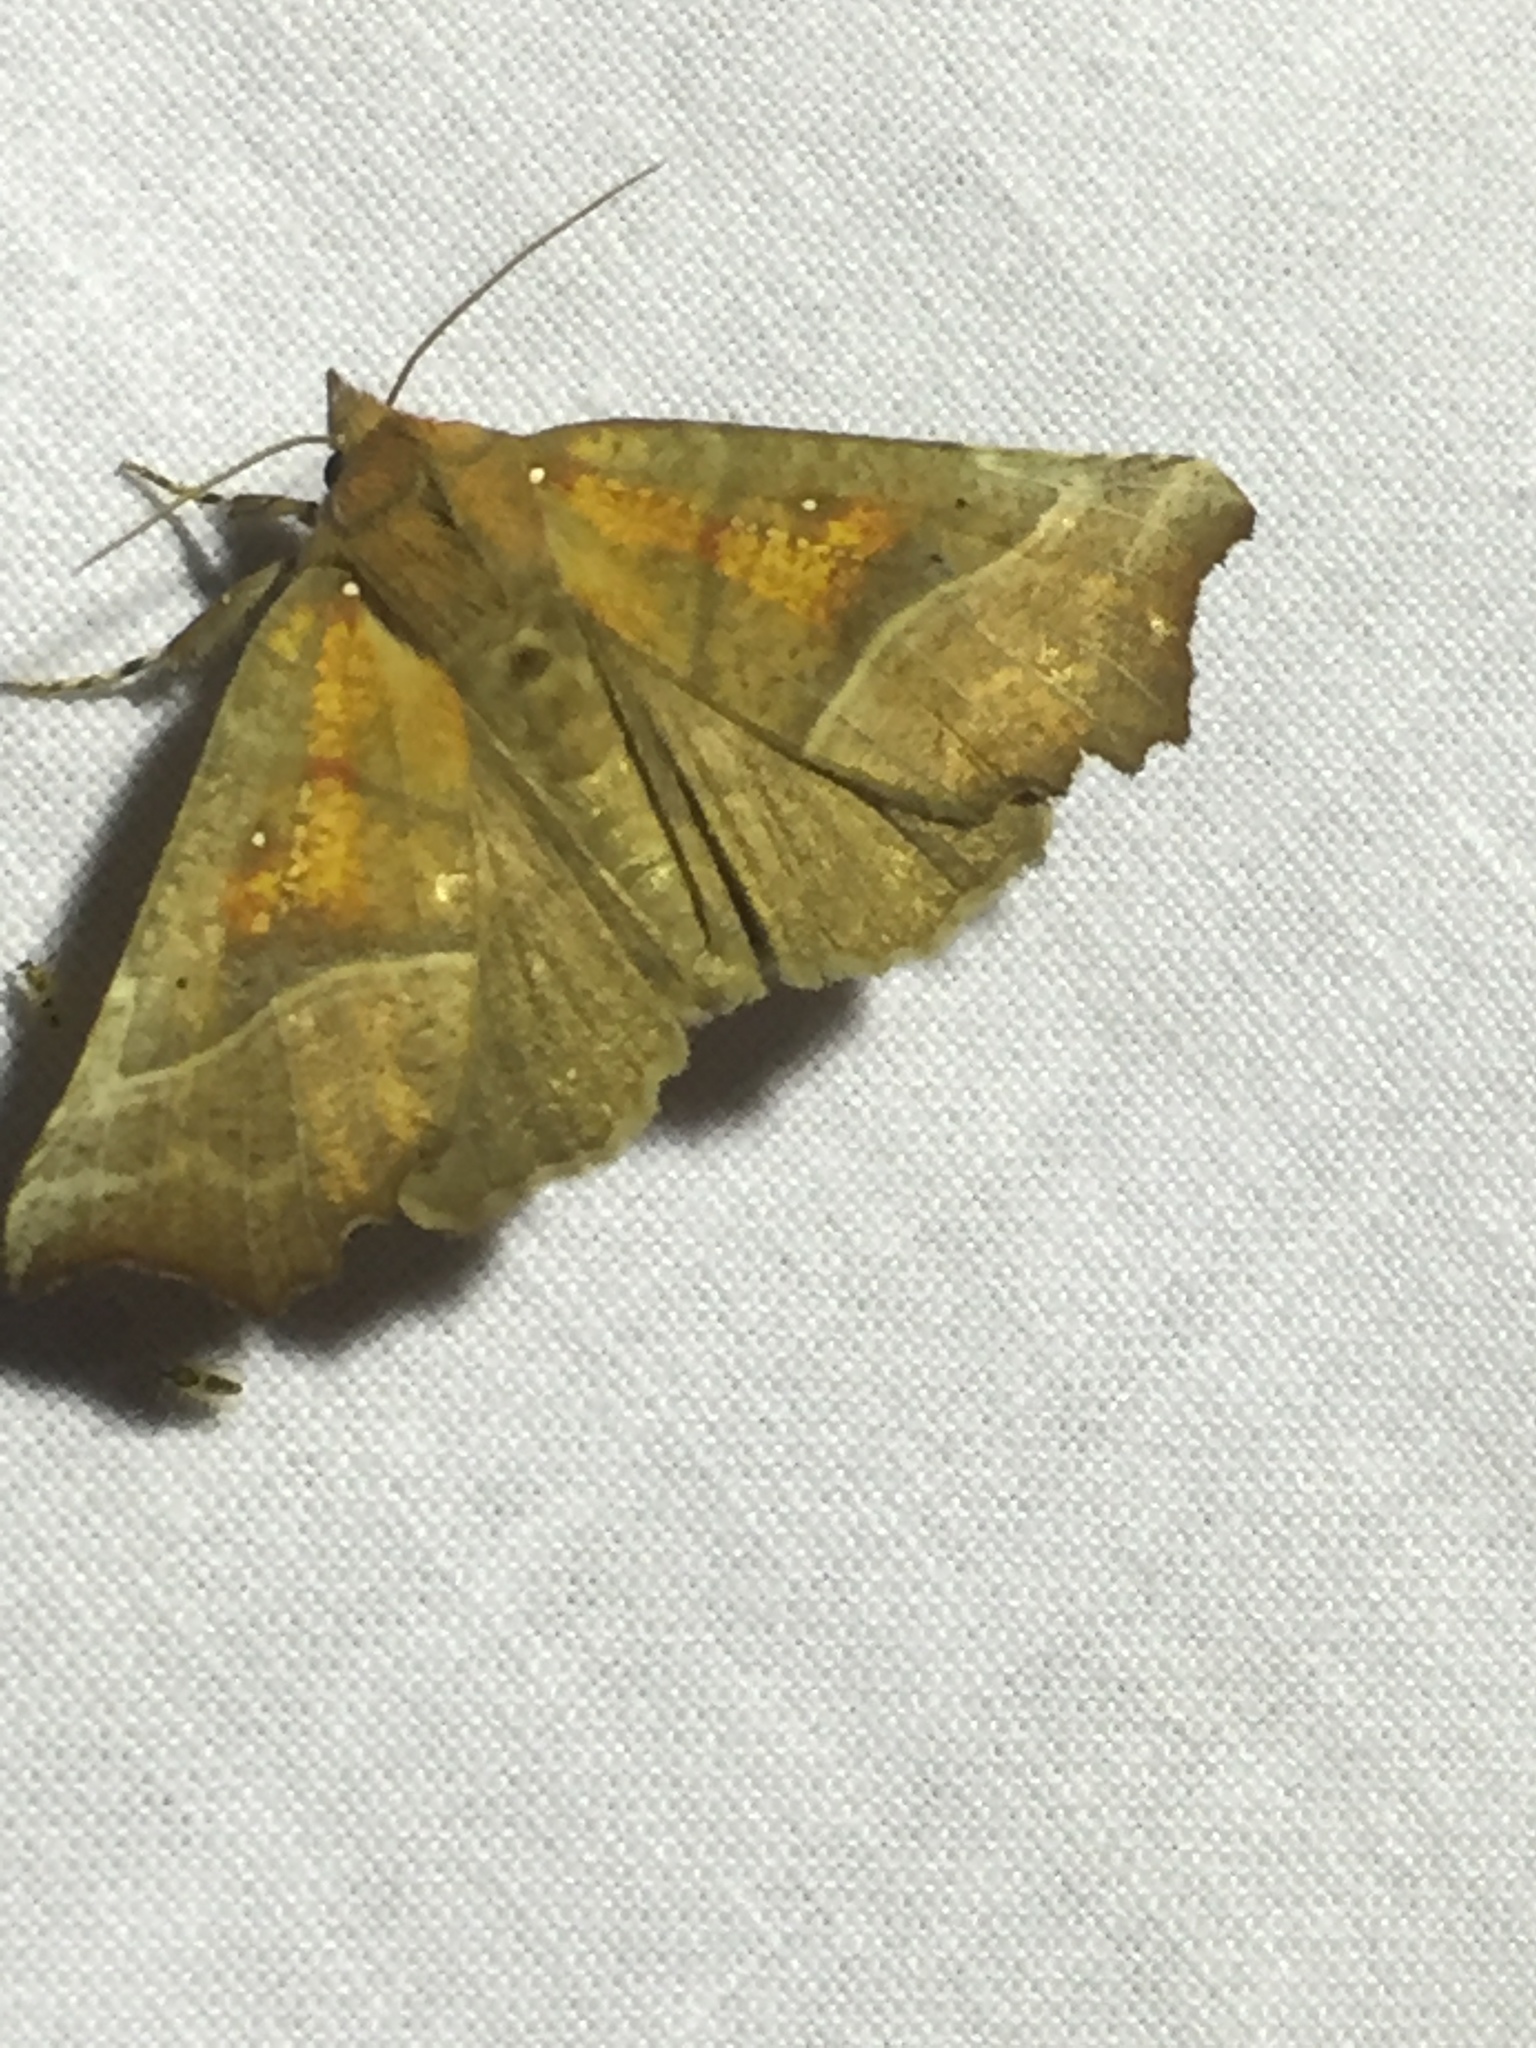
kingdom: Animalia
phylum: Arthropoda
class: Insecta
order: Lepidoptera
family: Erebidae
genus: Scoliopteryx
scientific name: Scoliopteryx libatrix
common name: Herald
